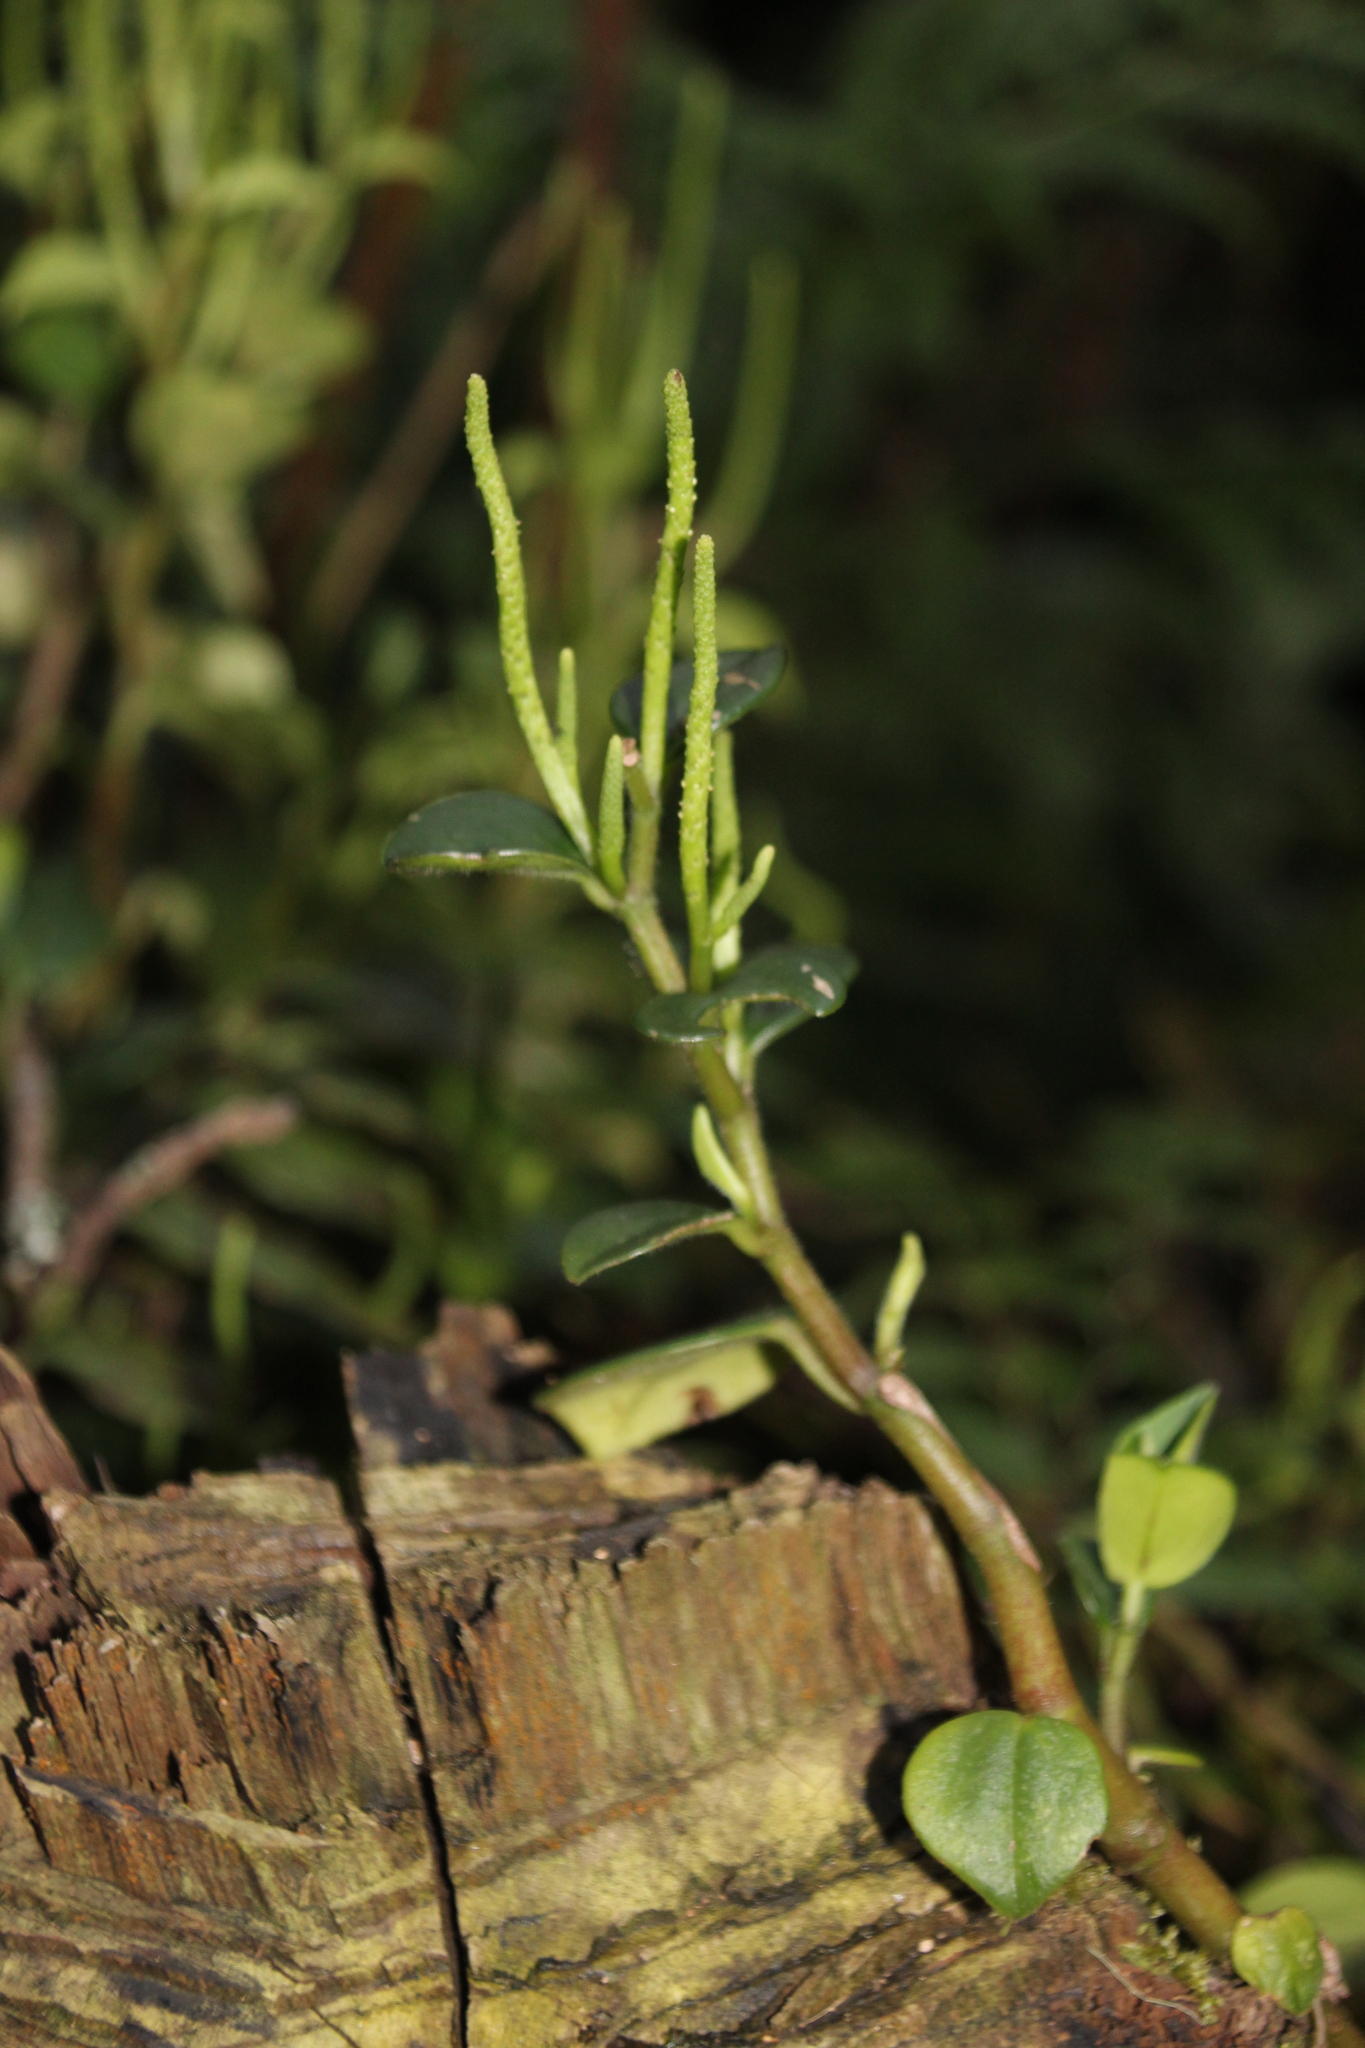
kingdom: Plantae
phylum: Tracheophyta
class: Magnoliopsida
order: Piperales
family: Piperaceae
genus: Peperomia
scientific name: Peperomia leptostachya
